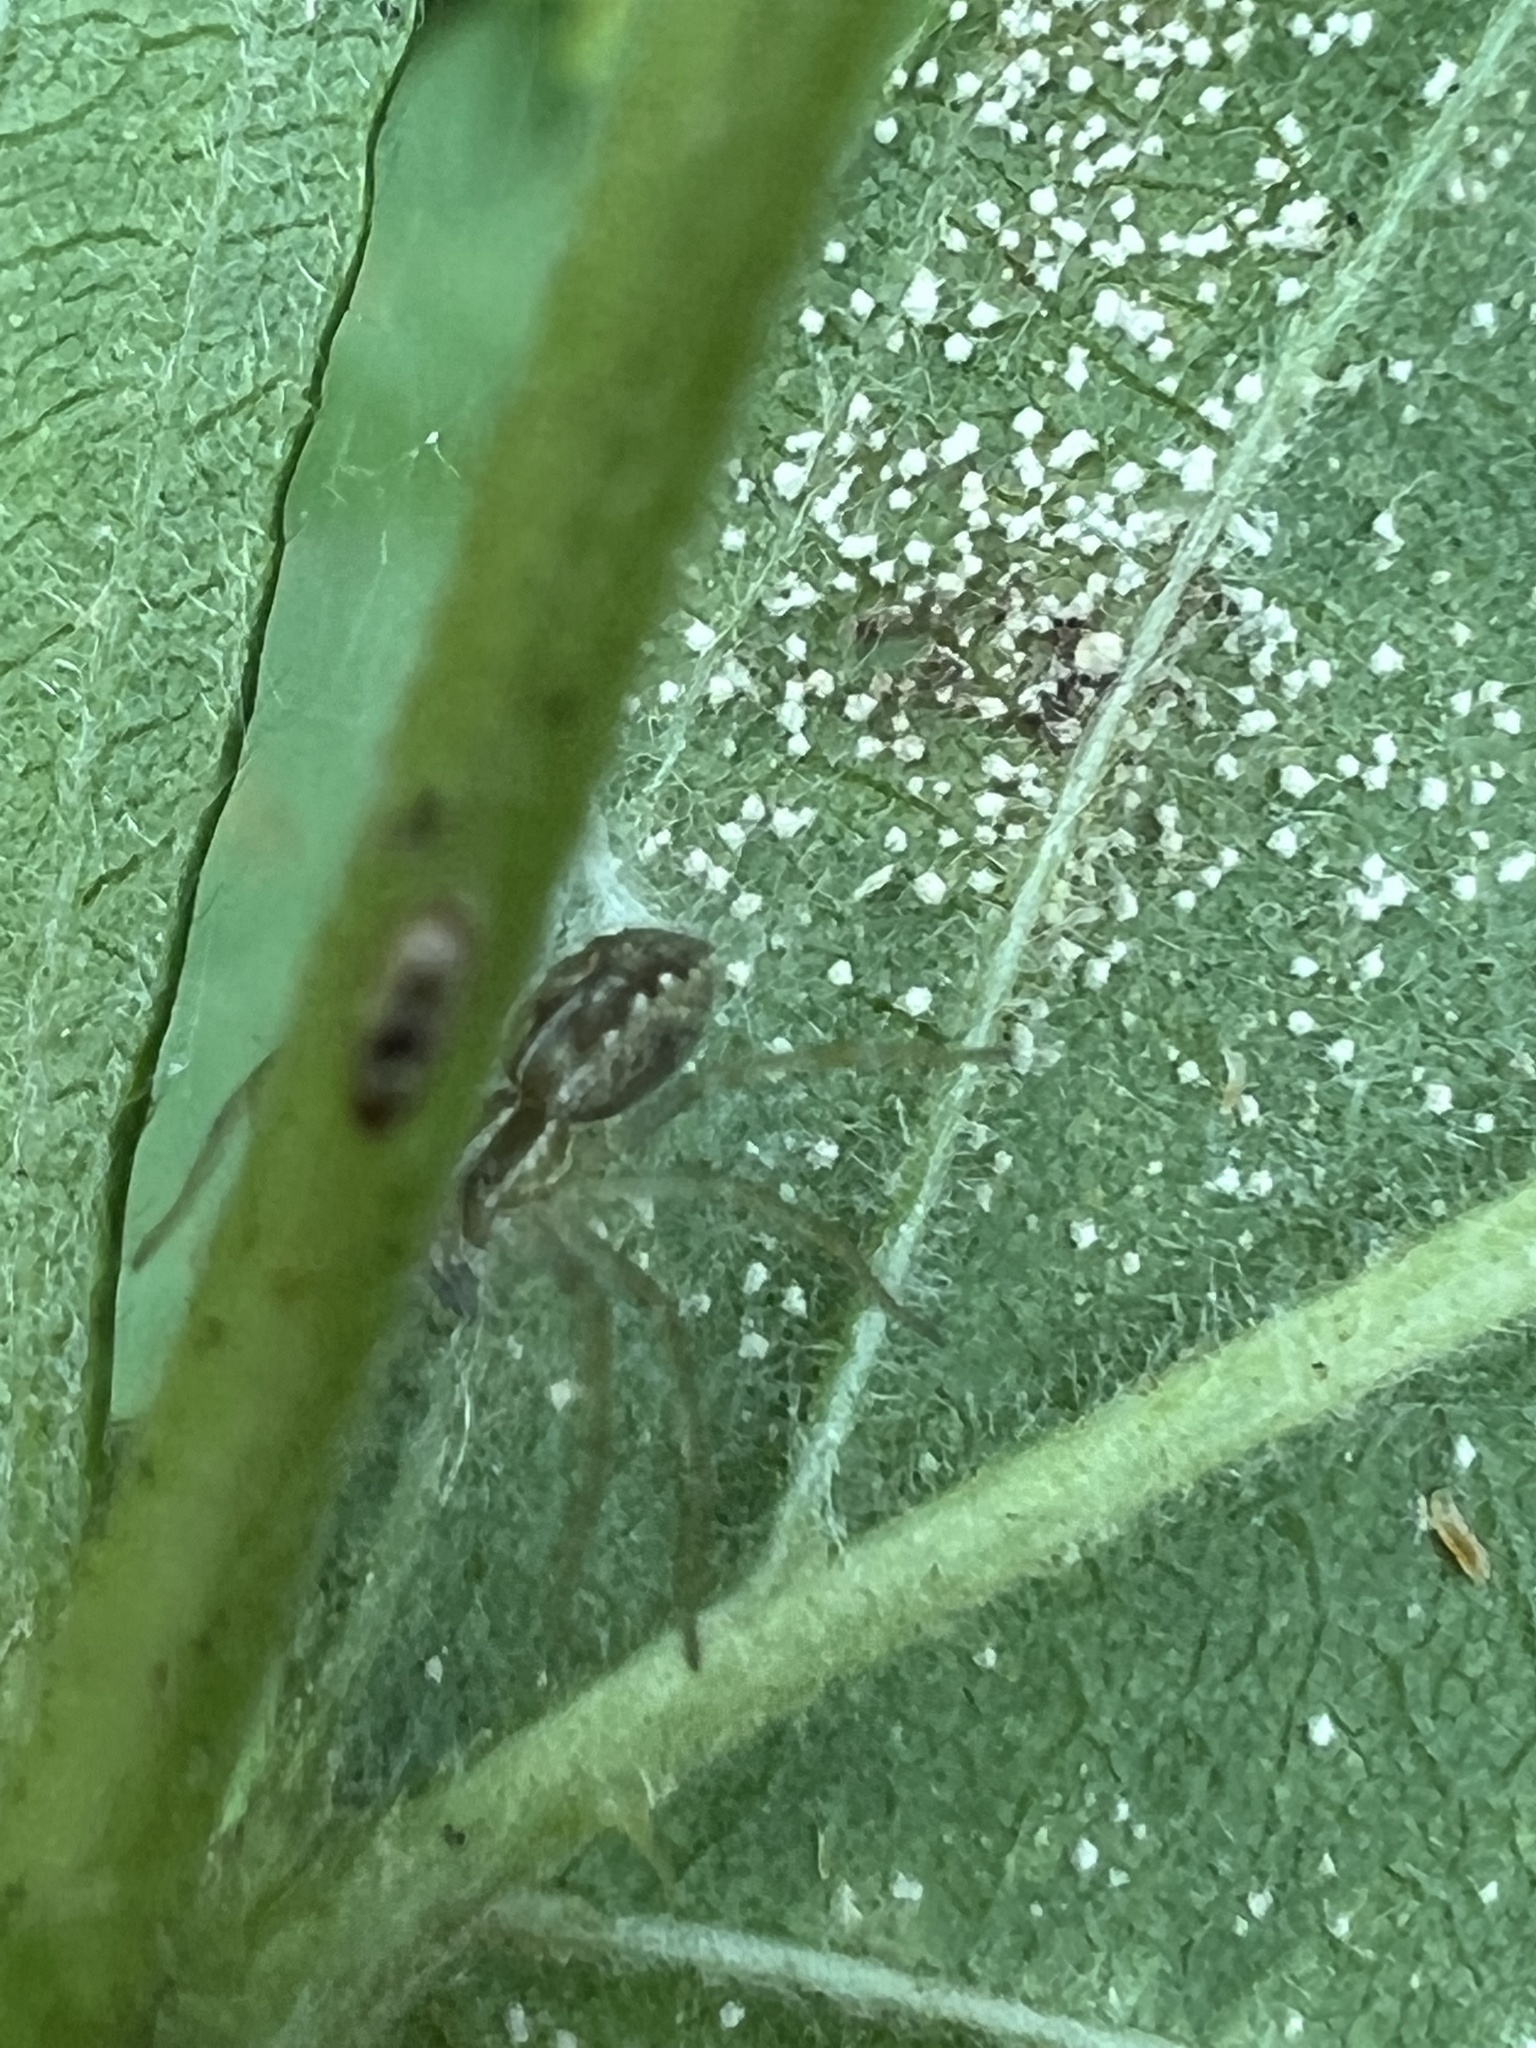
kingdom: Animalia
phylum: Arthropoda
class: Arachnida
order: Araneae
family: Pisauridae
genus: Pisaurina
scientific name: Pisaurina mira
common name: American nursery web spider
